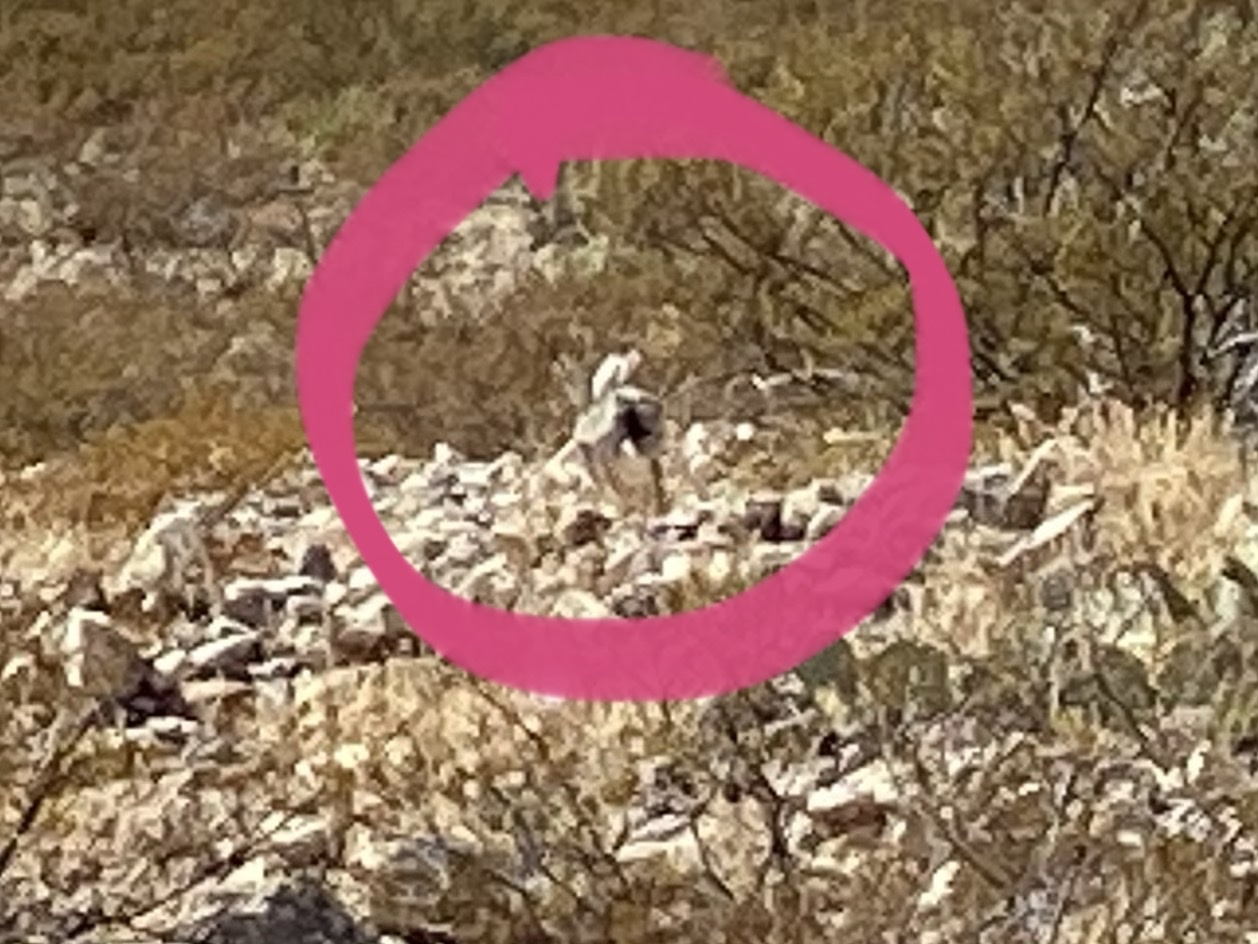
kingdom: Animalia
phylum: Chordata
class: Mammalia
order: Lagomorpha
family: Leporidae
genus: Lepus
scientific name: Lepus californicus
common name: Black-tailed jackrabbit
